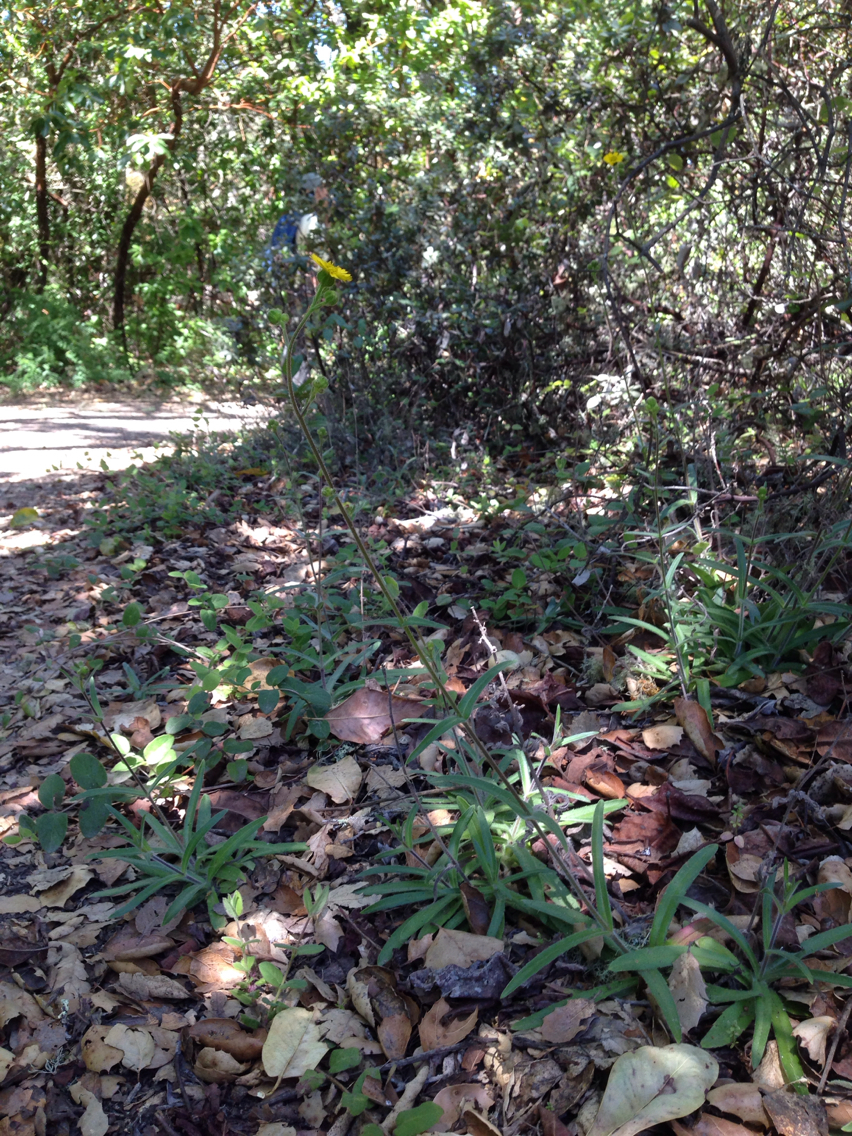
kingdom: Plantae
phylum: Tracheophyta
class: Magnoliopsida
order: Asterales
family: Asteraceae
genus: Anisocarpus
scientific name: Anisocarpus madioides
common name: Woodland madia
